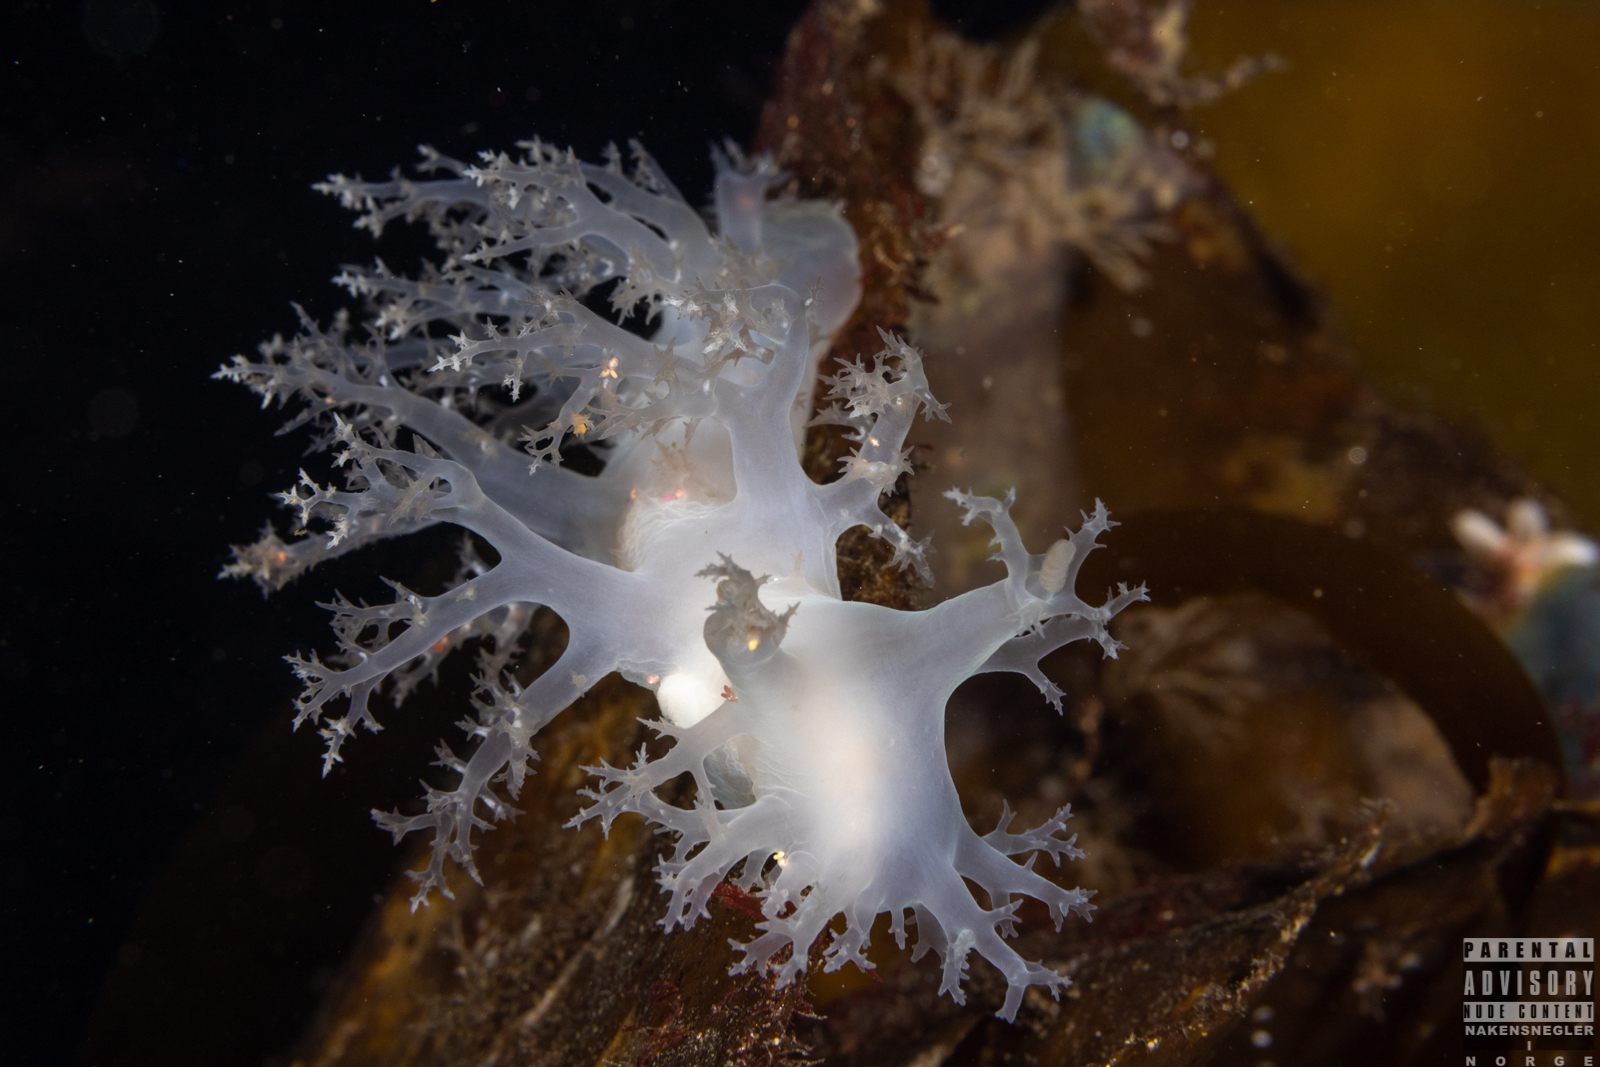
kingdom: Animalia
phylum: Mollusca
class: Gastropoda
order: Nudibranchia
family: Dendronotidae
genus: Dendronotus
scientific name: Dendronotus lacteus
